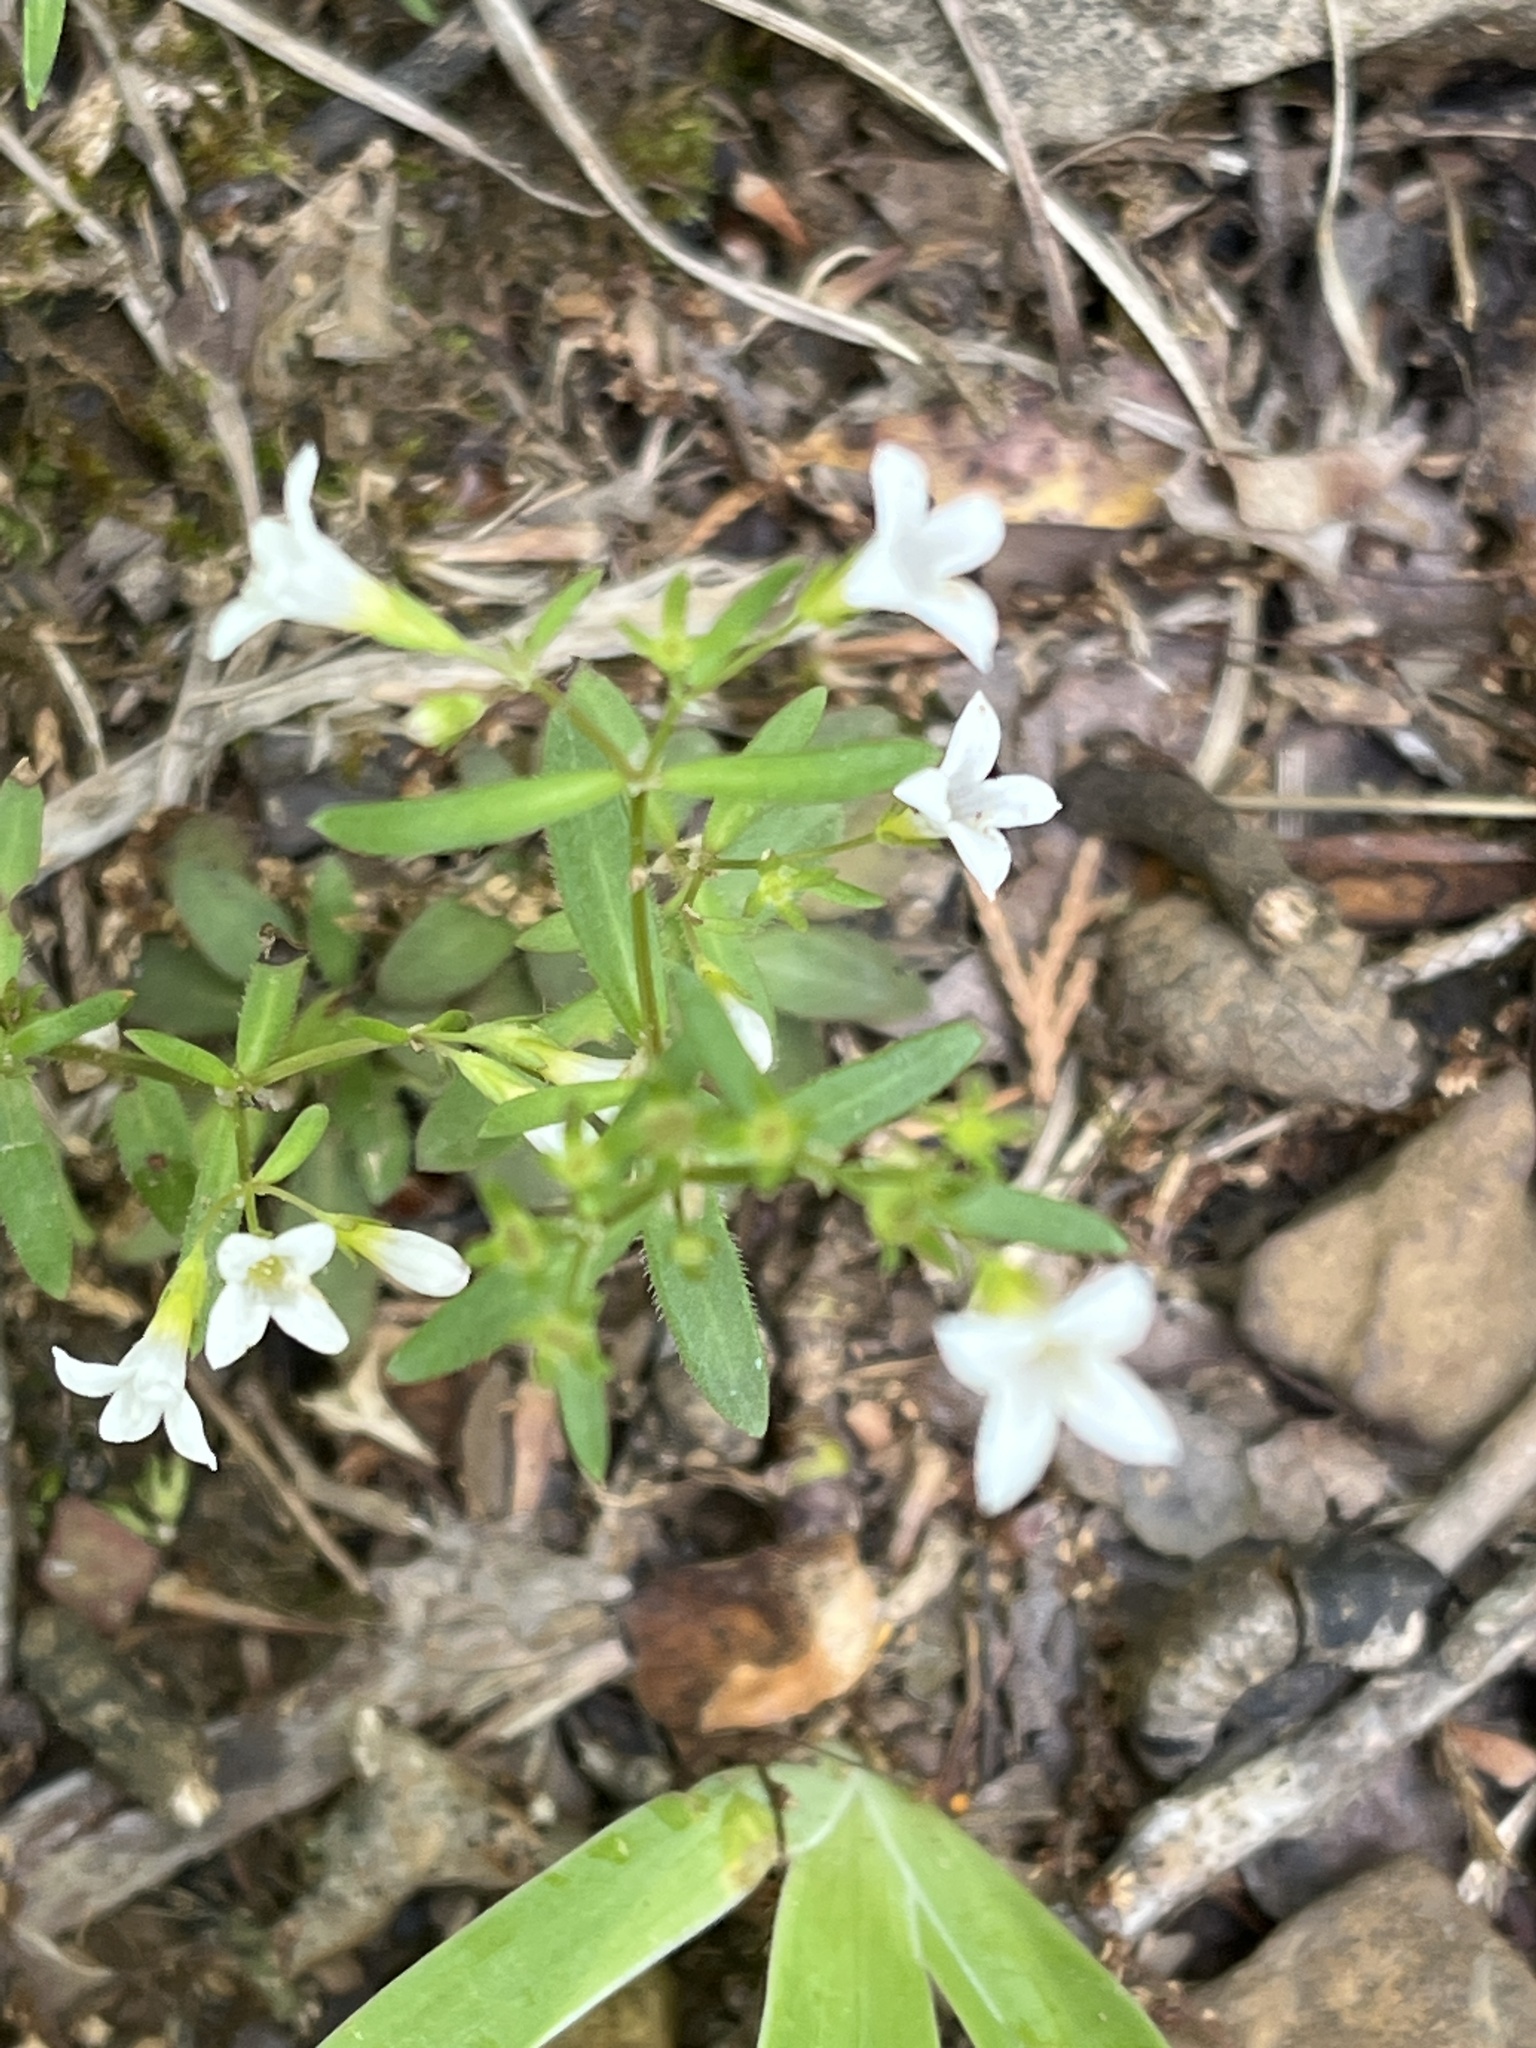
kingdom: Plantae
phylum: Tracheophyta
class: Magnoliopsida
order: Gentianales
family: Rubiaceae
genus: Houstonia
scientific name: Houstonia longifolia
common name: Long-leaved bluets
